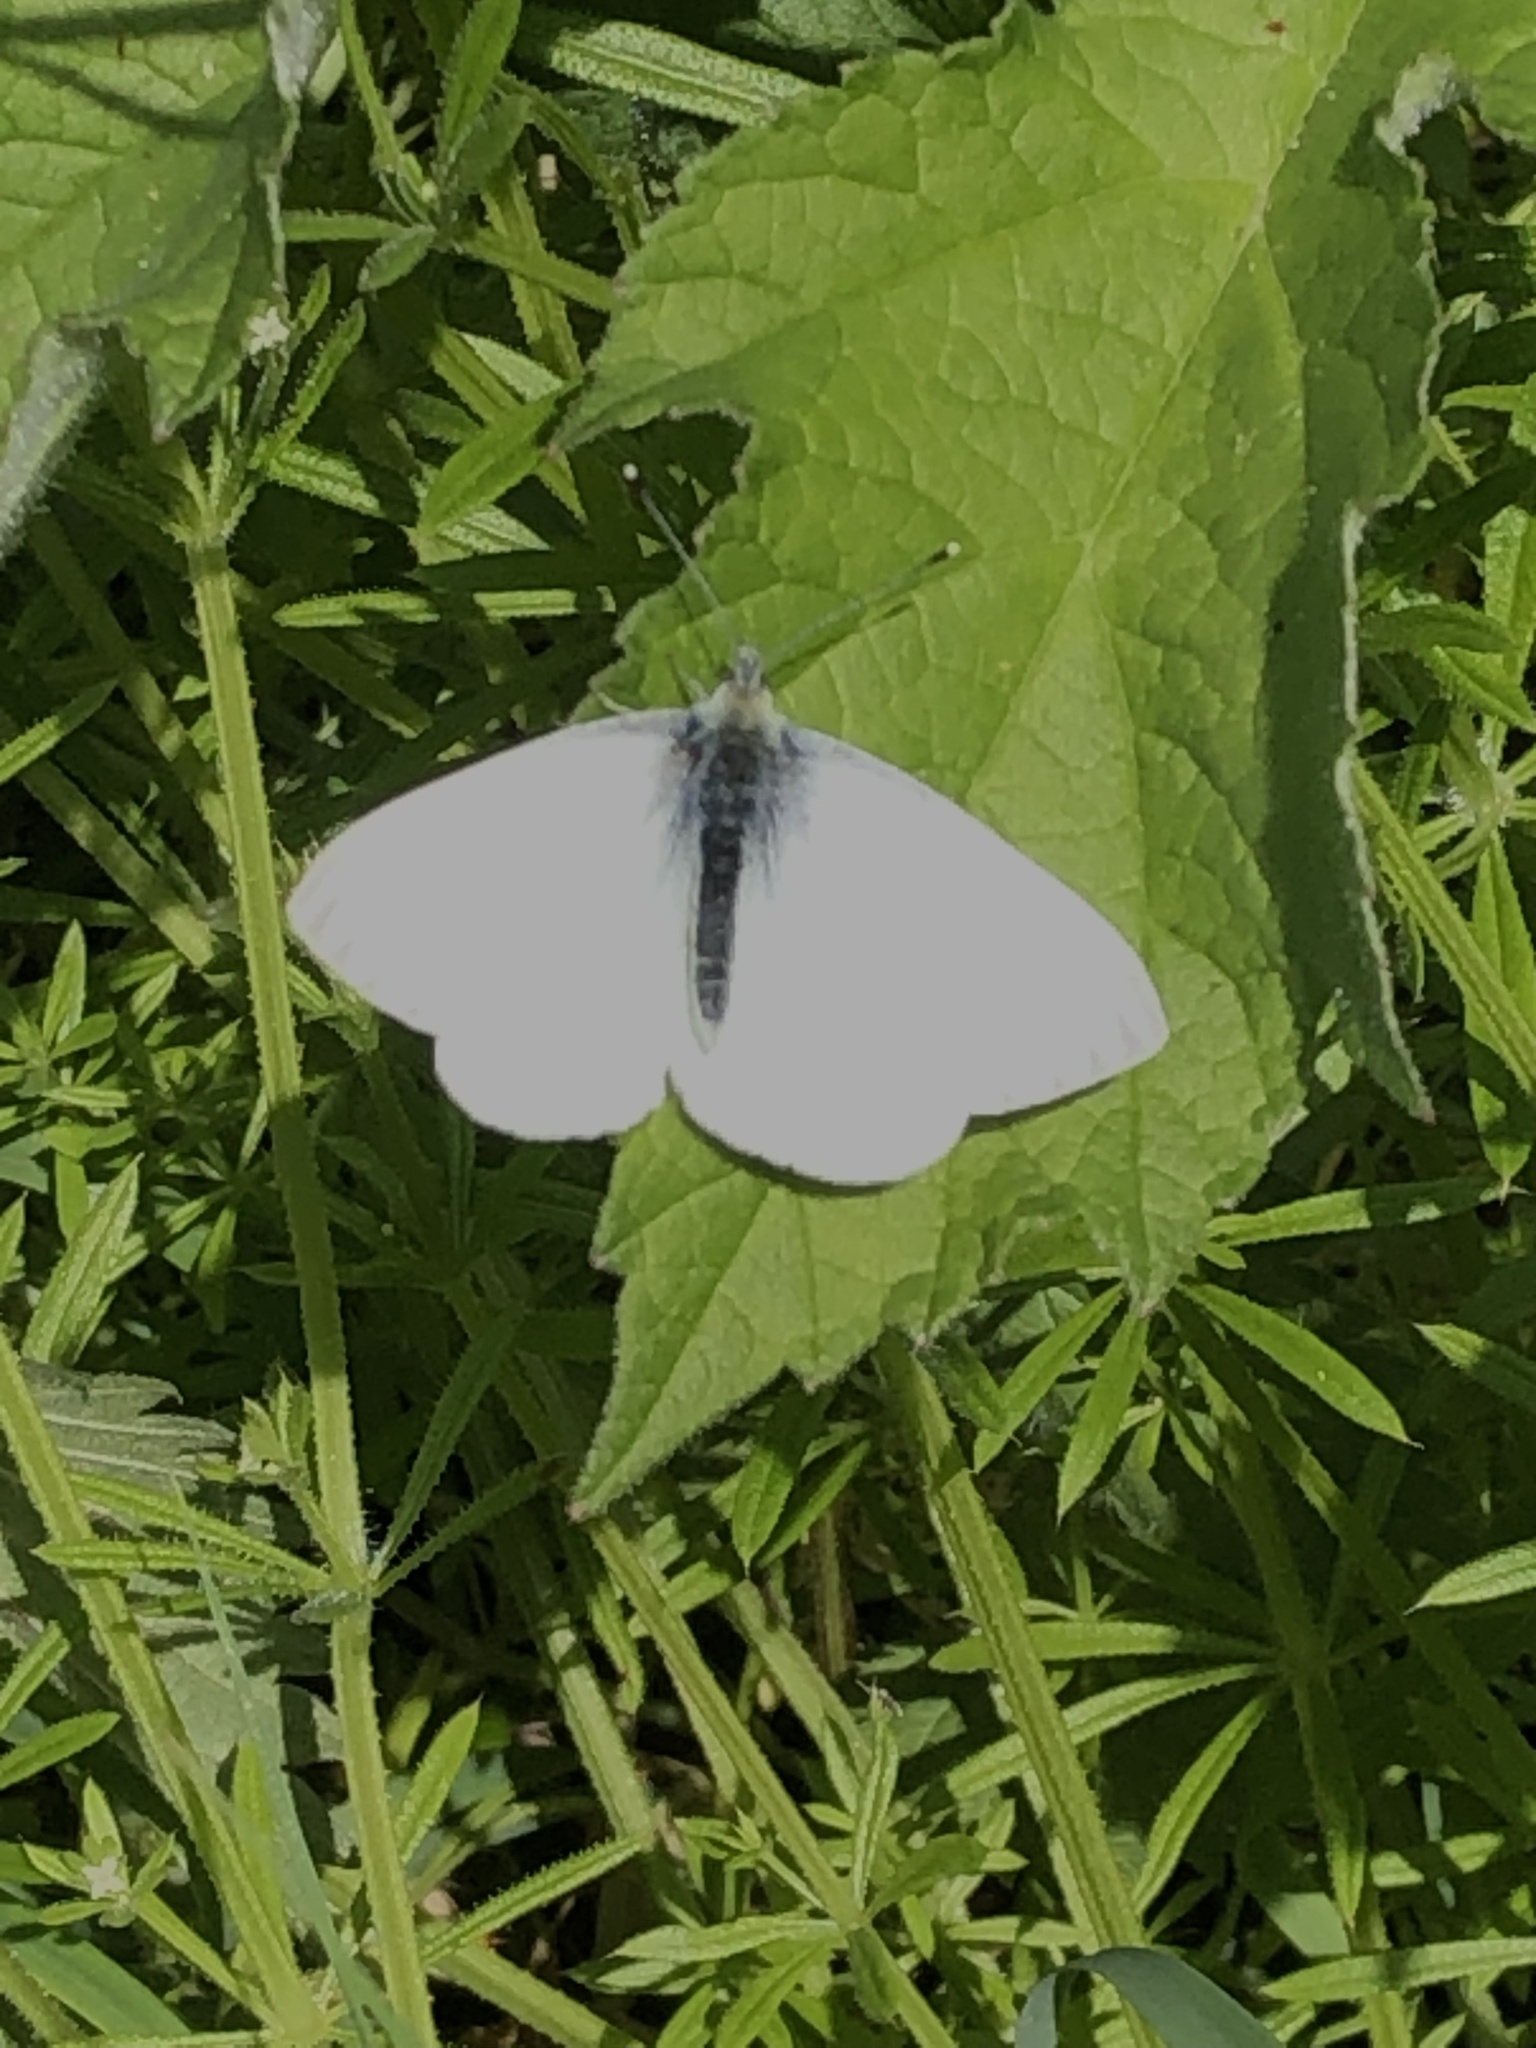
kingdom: Animalia
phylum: Arthropoda
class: Insecta
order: Lepidoptera
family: Pieridae
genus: Pieris
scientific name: Pieris napi
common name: Green-veined white
